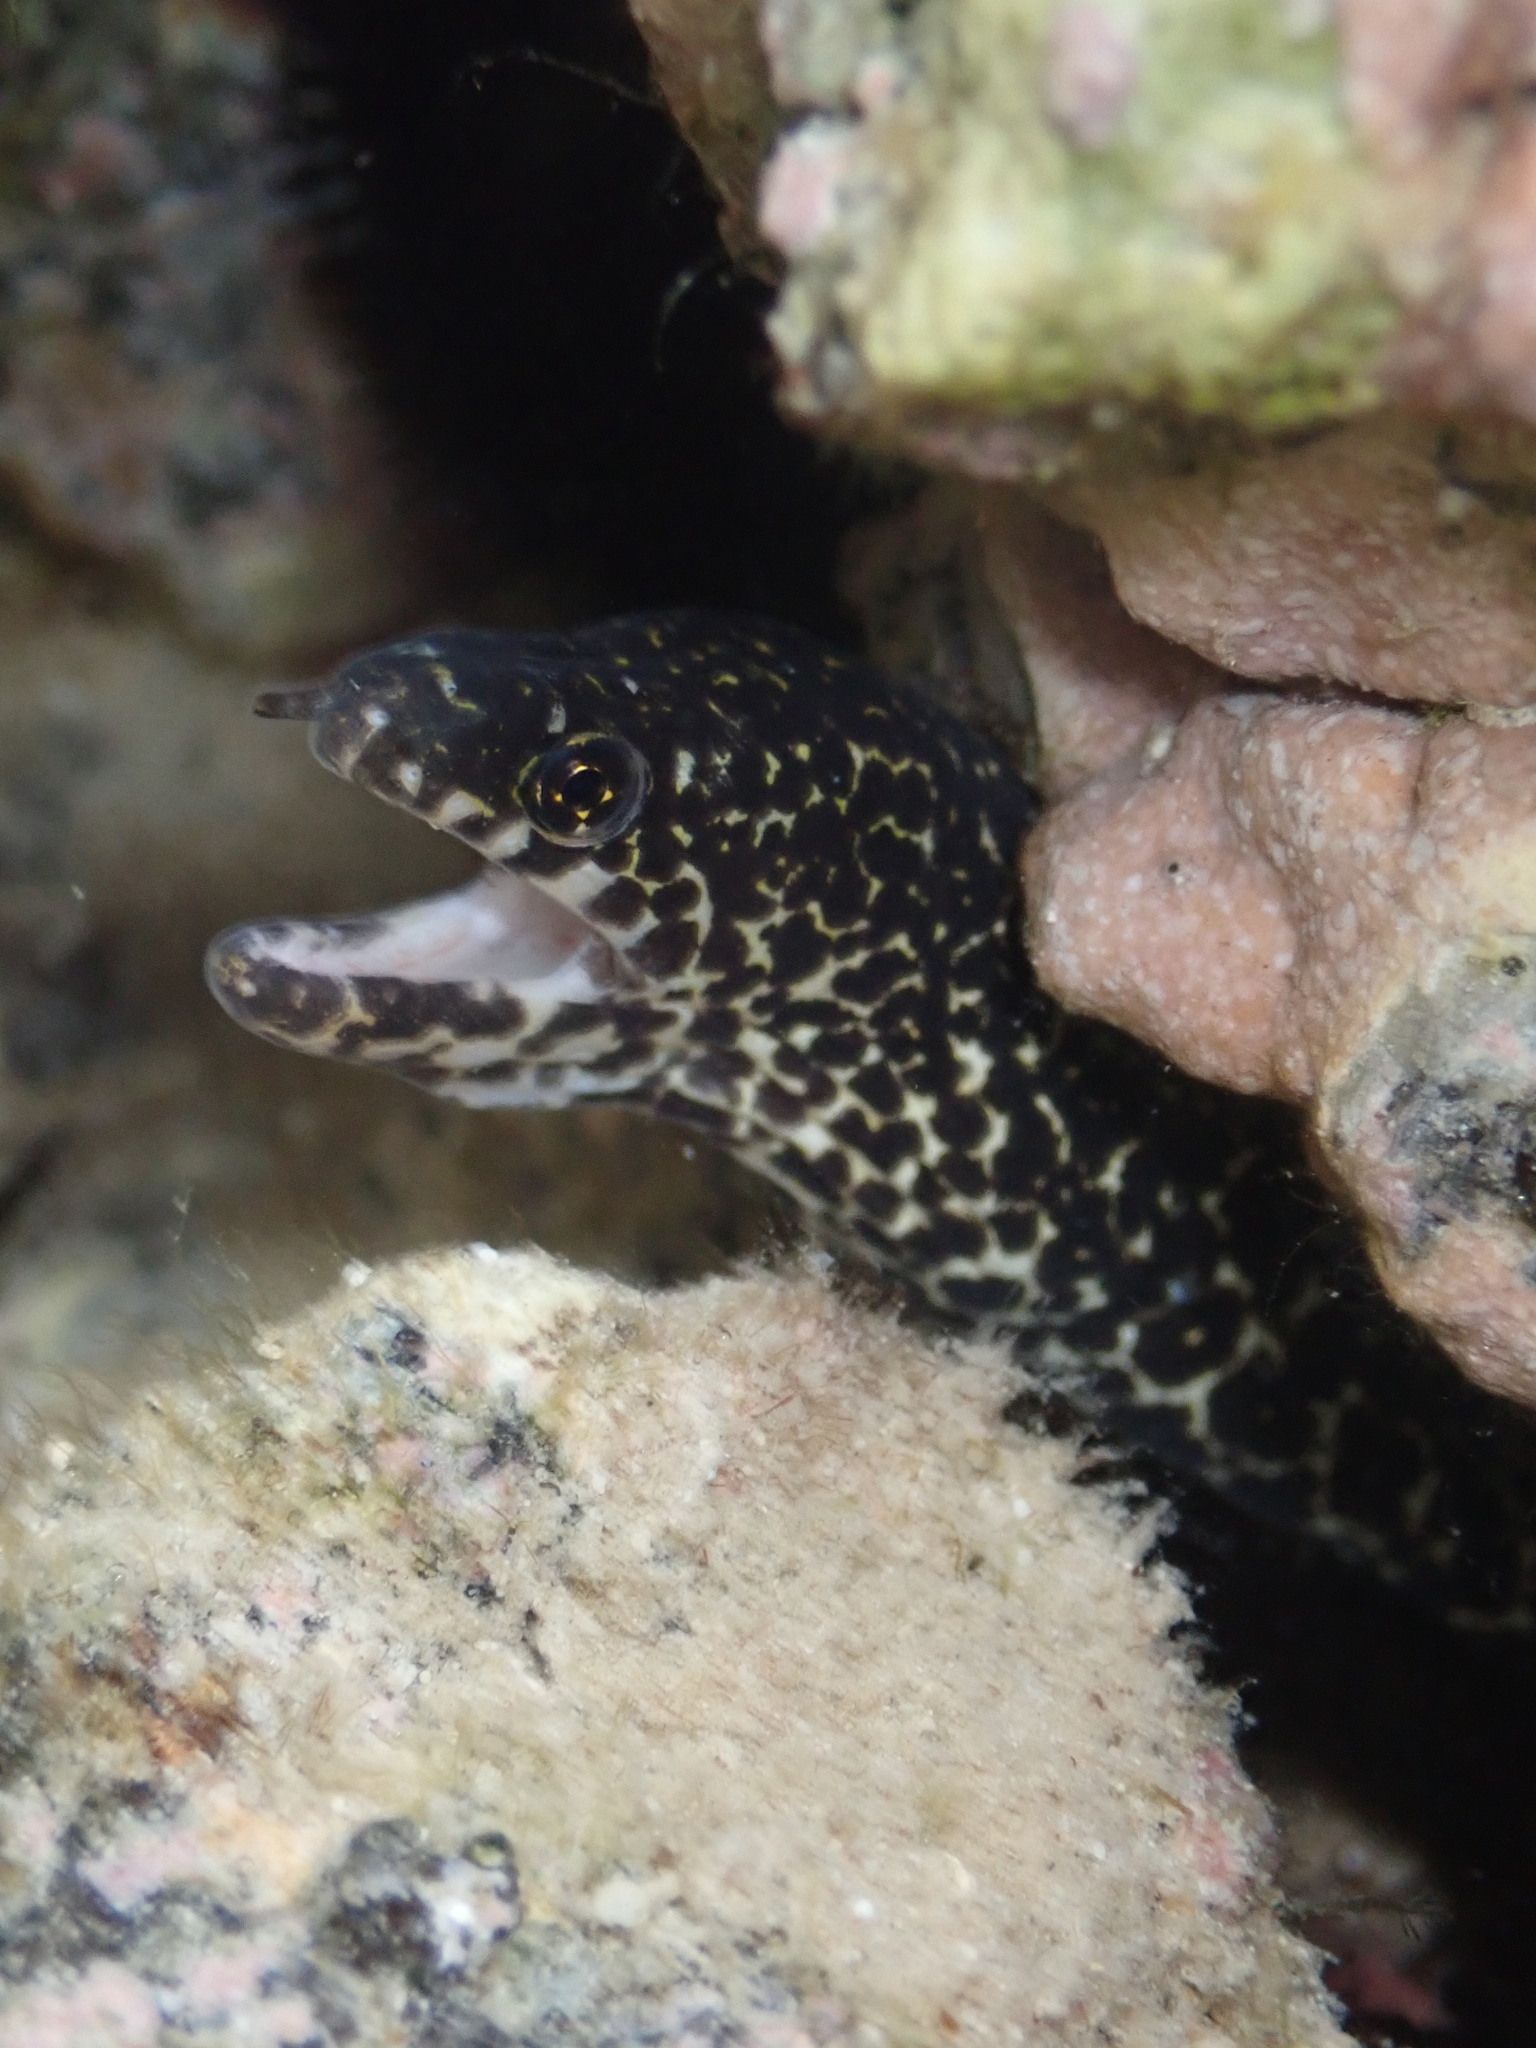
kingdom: Animalia
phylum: Chordata
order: Anguilliformes
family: Muraenidae
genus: Gymnothorax
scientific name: Gymnothorax pictus
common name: Peppered moray
